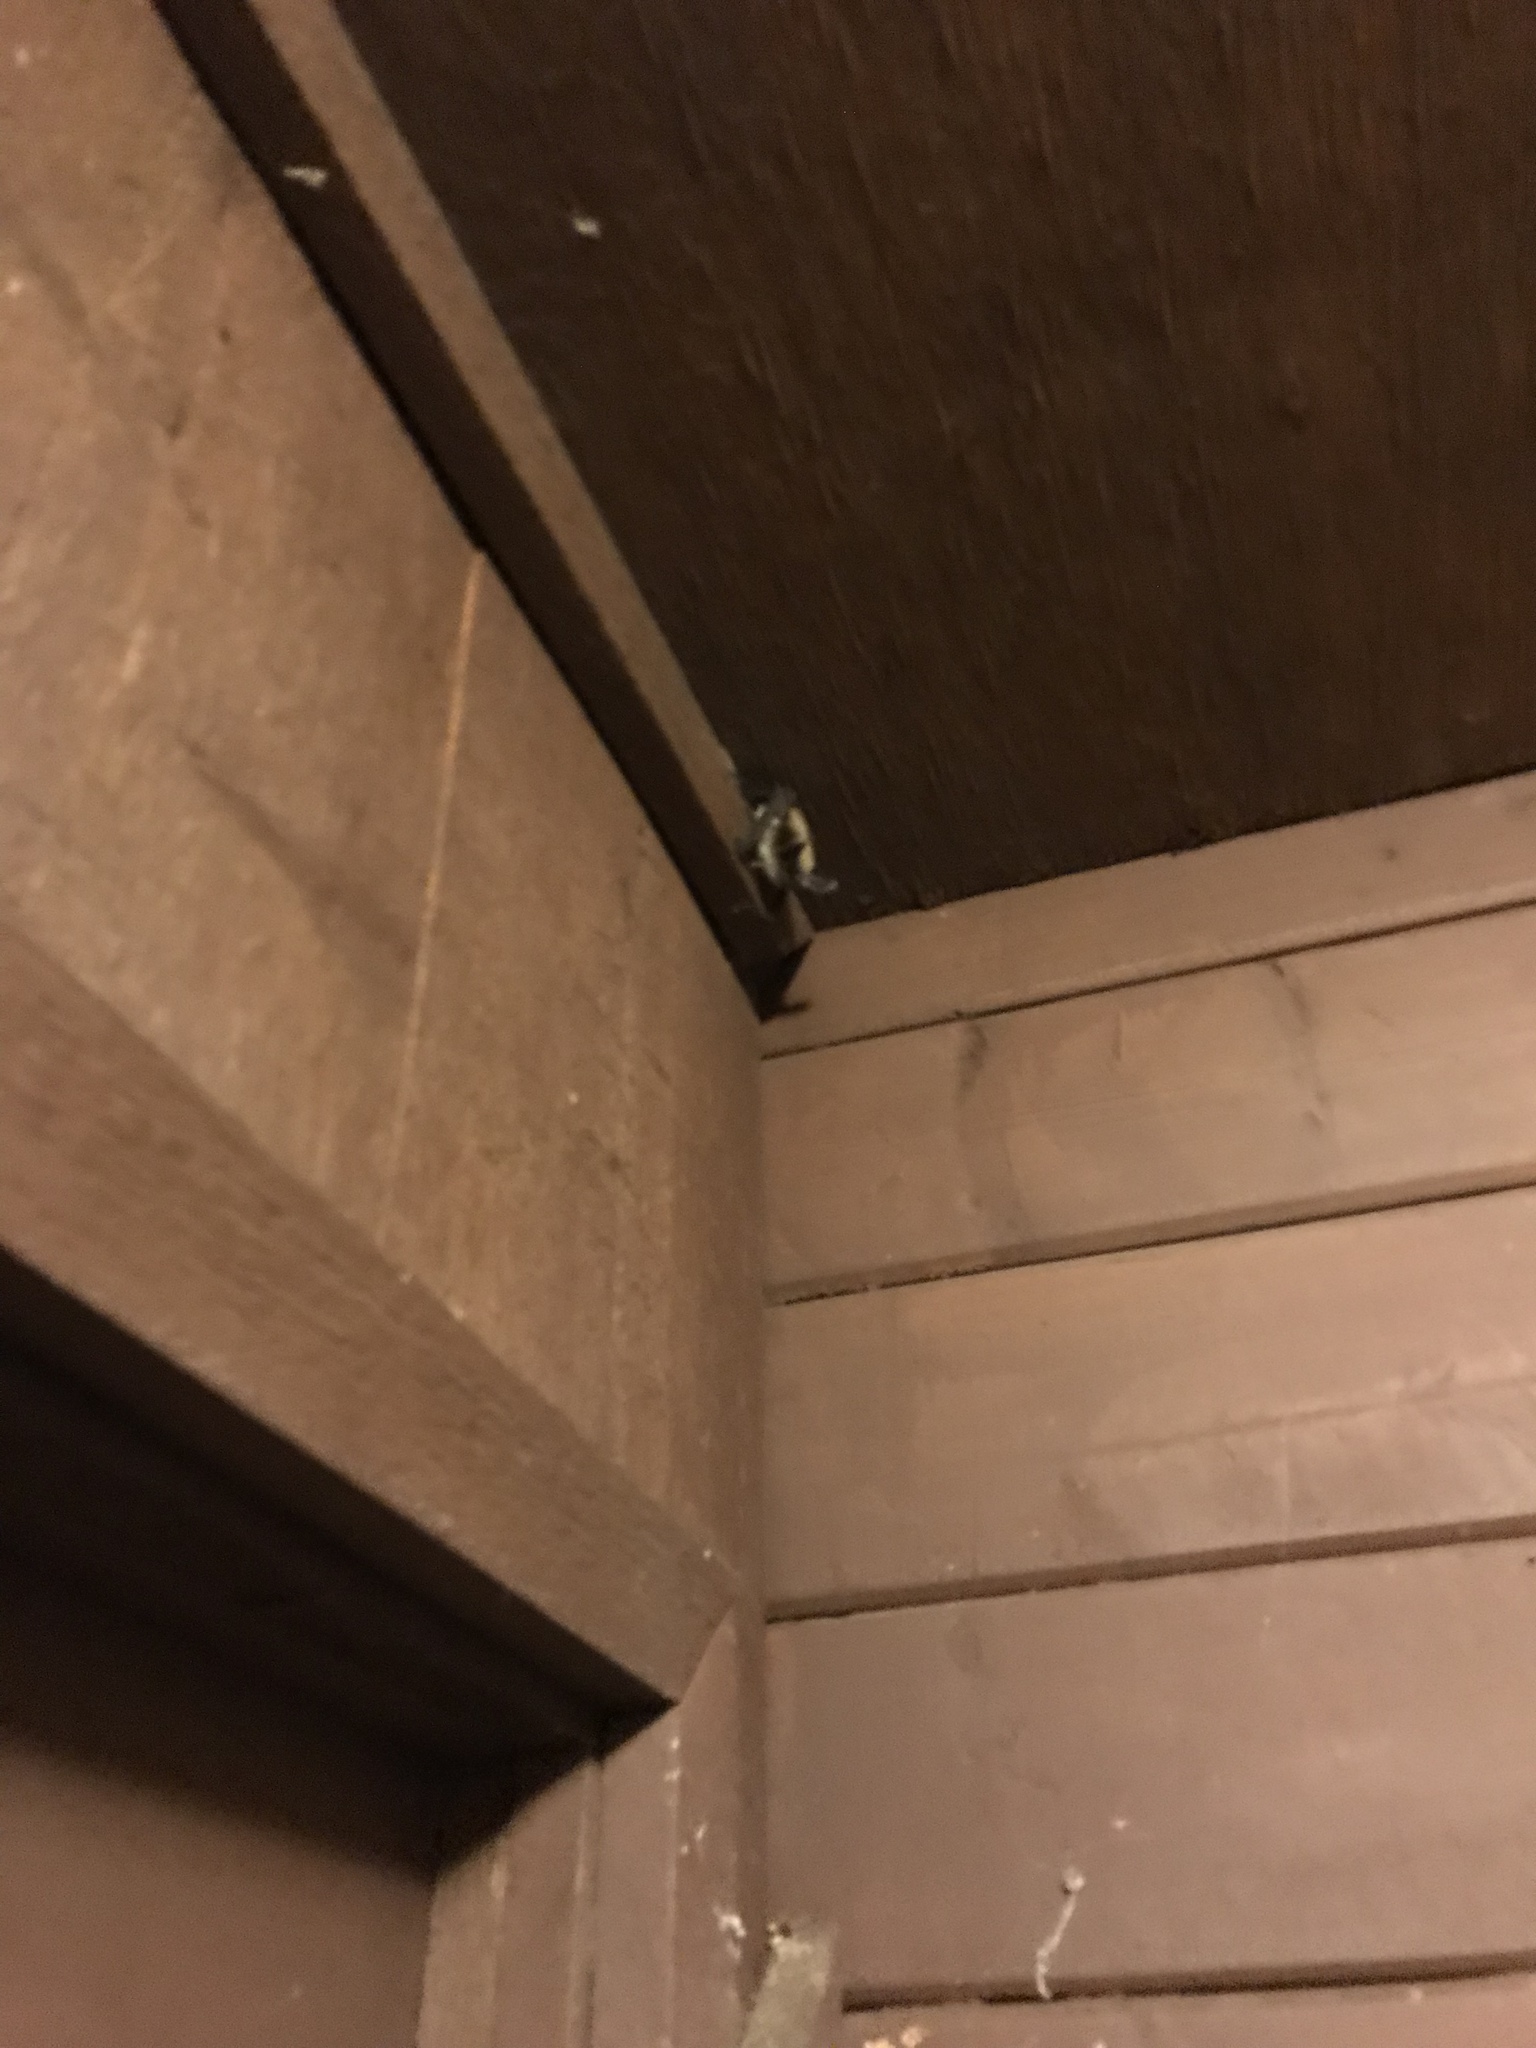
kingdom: Animalia
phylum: Chordata
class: Mammalia
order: Chiroptera
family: Vespertilionidae
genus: Myotis
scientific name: Myotis evotis
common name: Long-eared myotis
